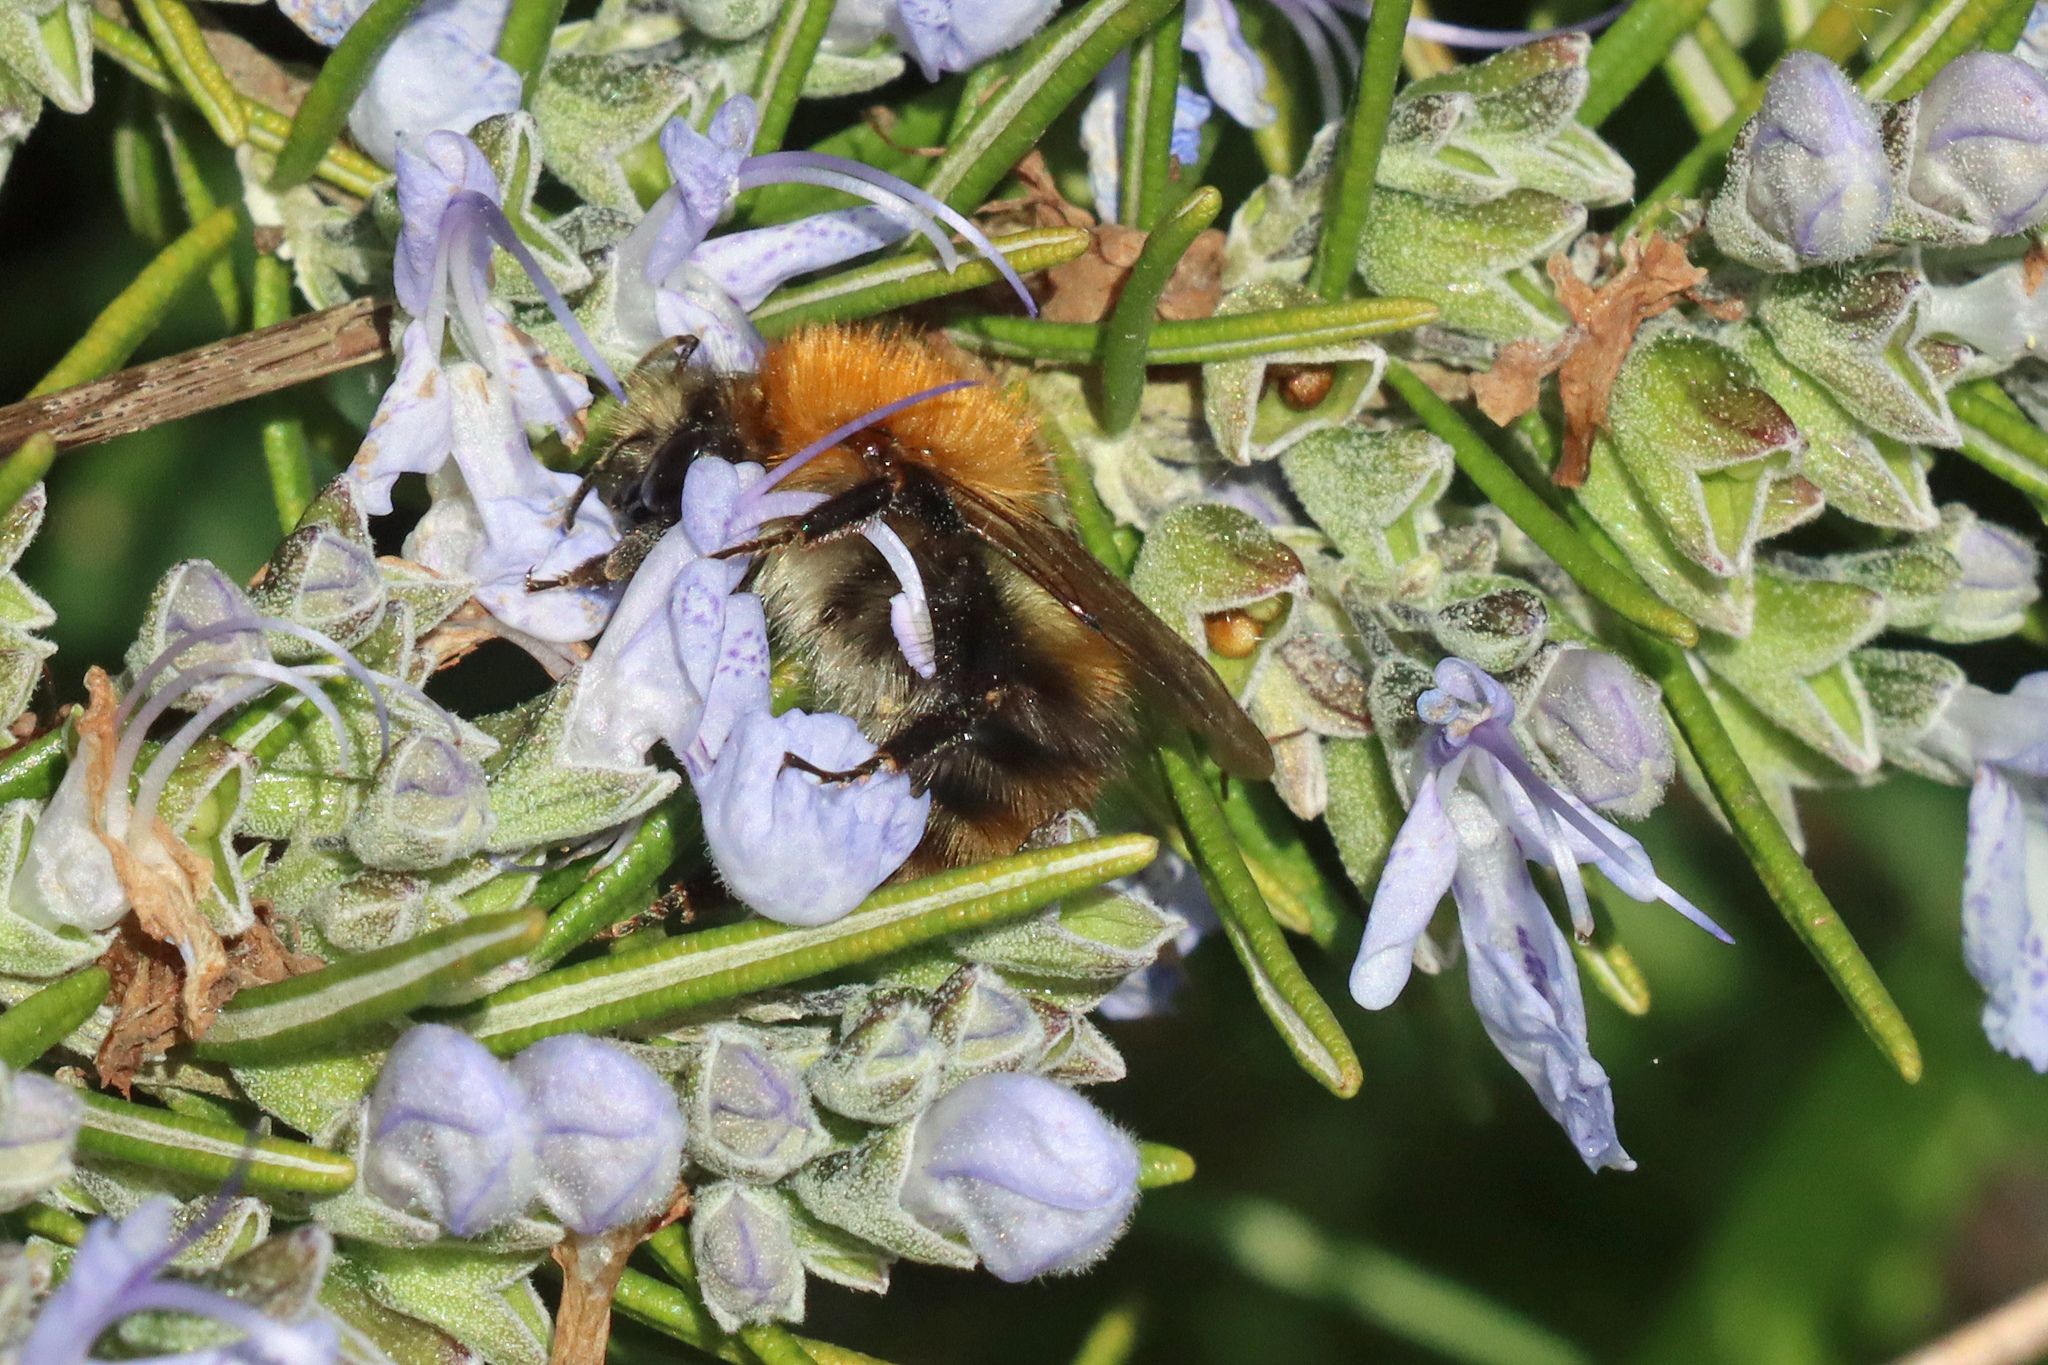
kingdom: Animalia
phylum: Arthropoda
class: Insecta
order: Hymenoptera
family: Apidae
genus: Bombus
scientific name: Bombus pascuorum
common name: Common carder bee
